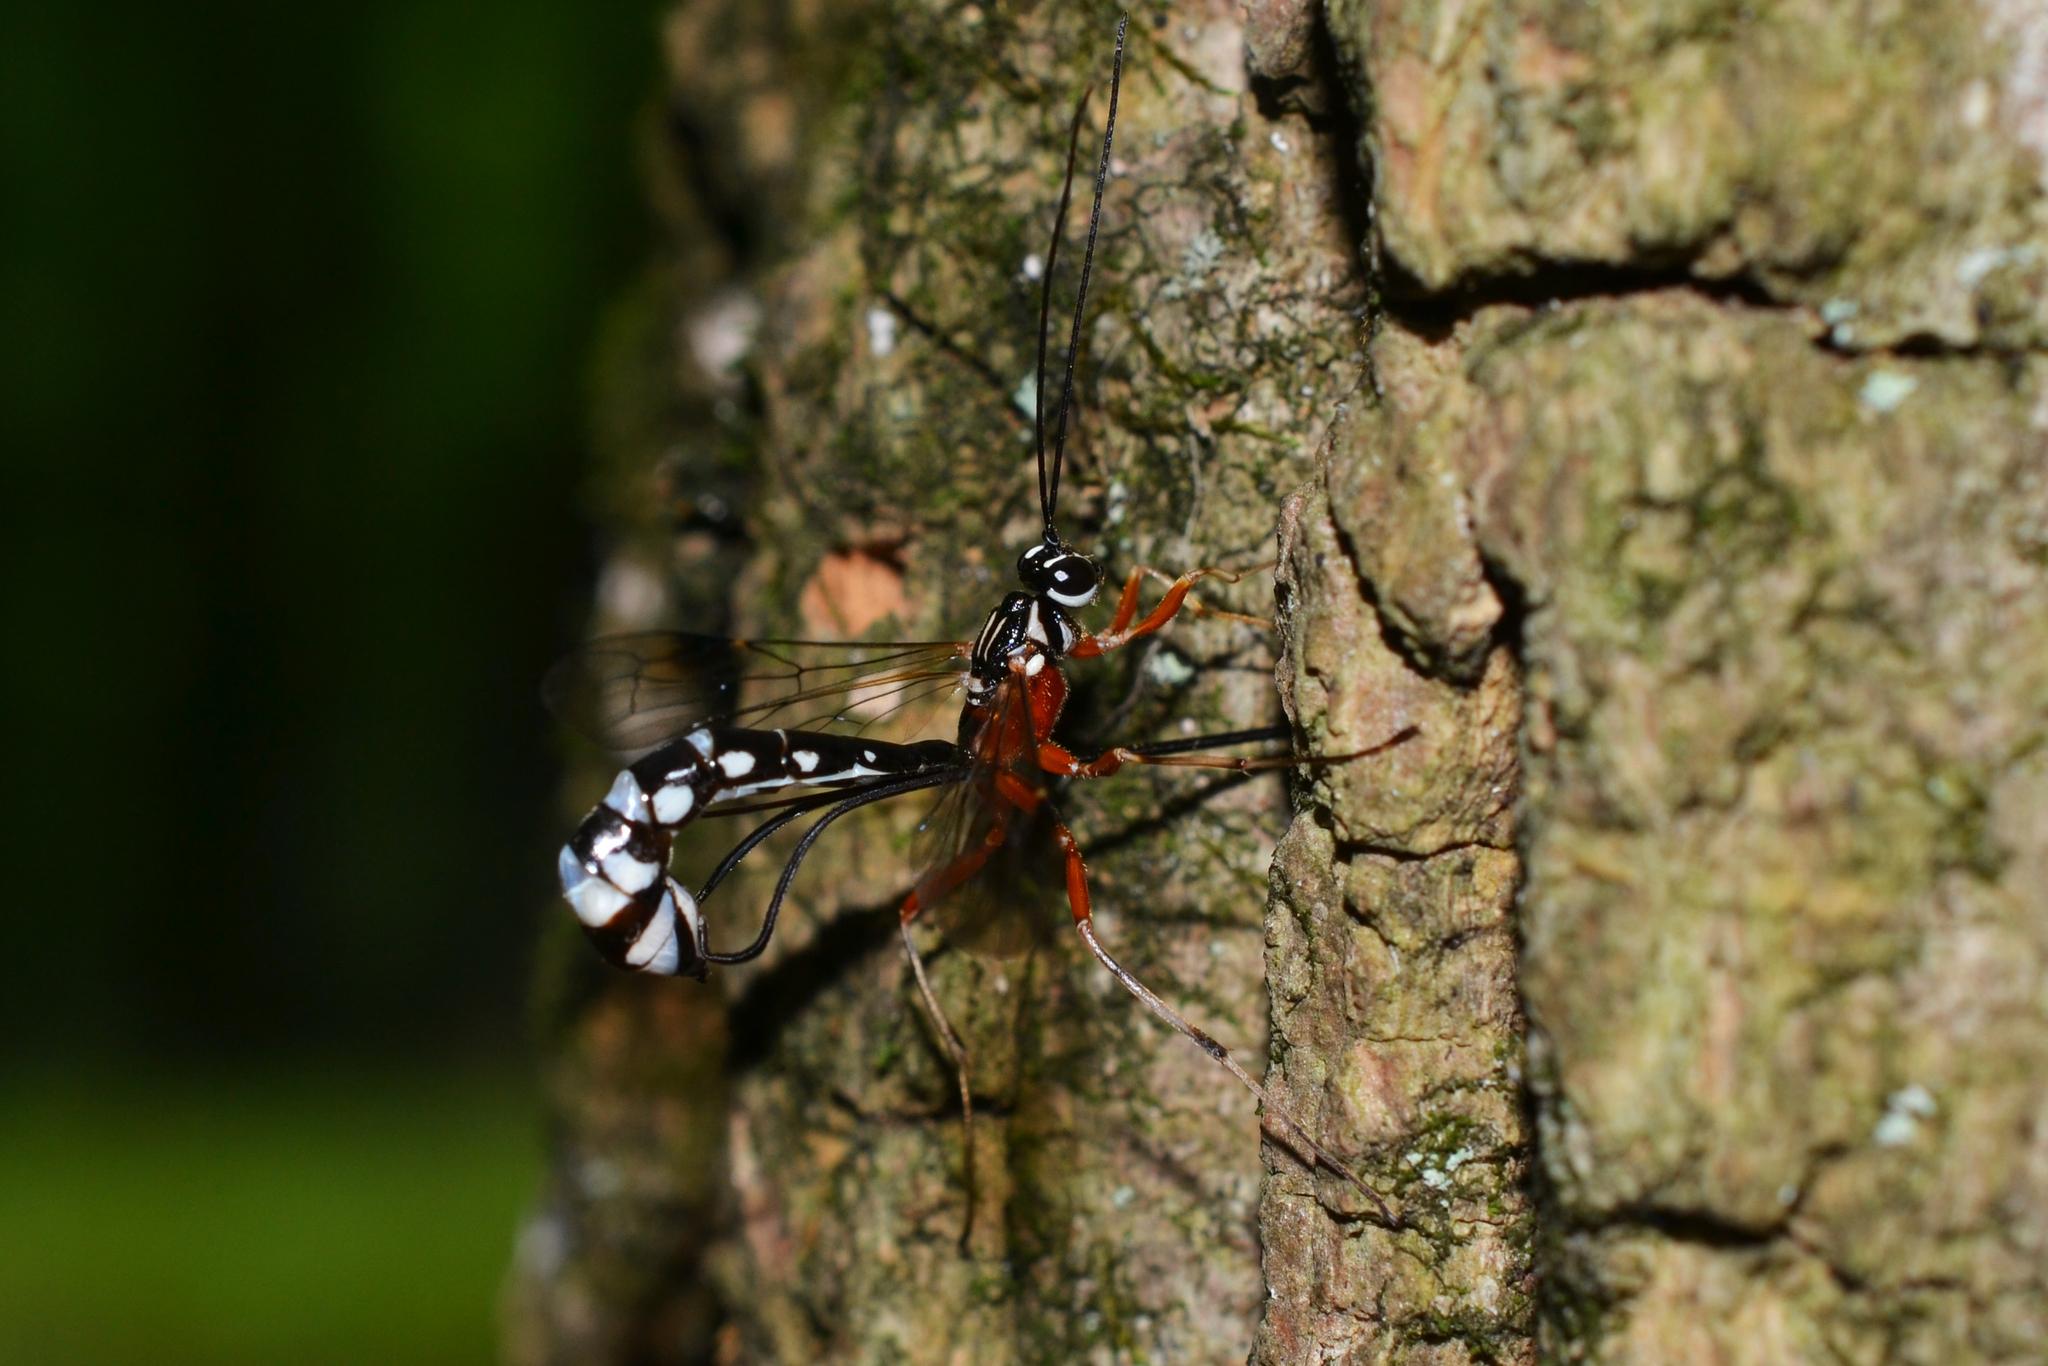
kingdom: Animalia
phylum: Arthropoda
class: Insecta
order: Hymenoptera
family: Ichneumonidae
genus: Rhyssella
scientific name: Rhyssella humida
